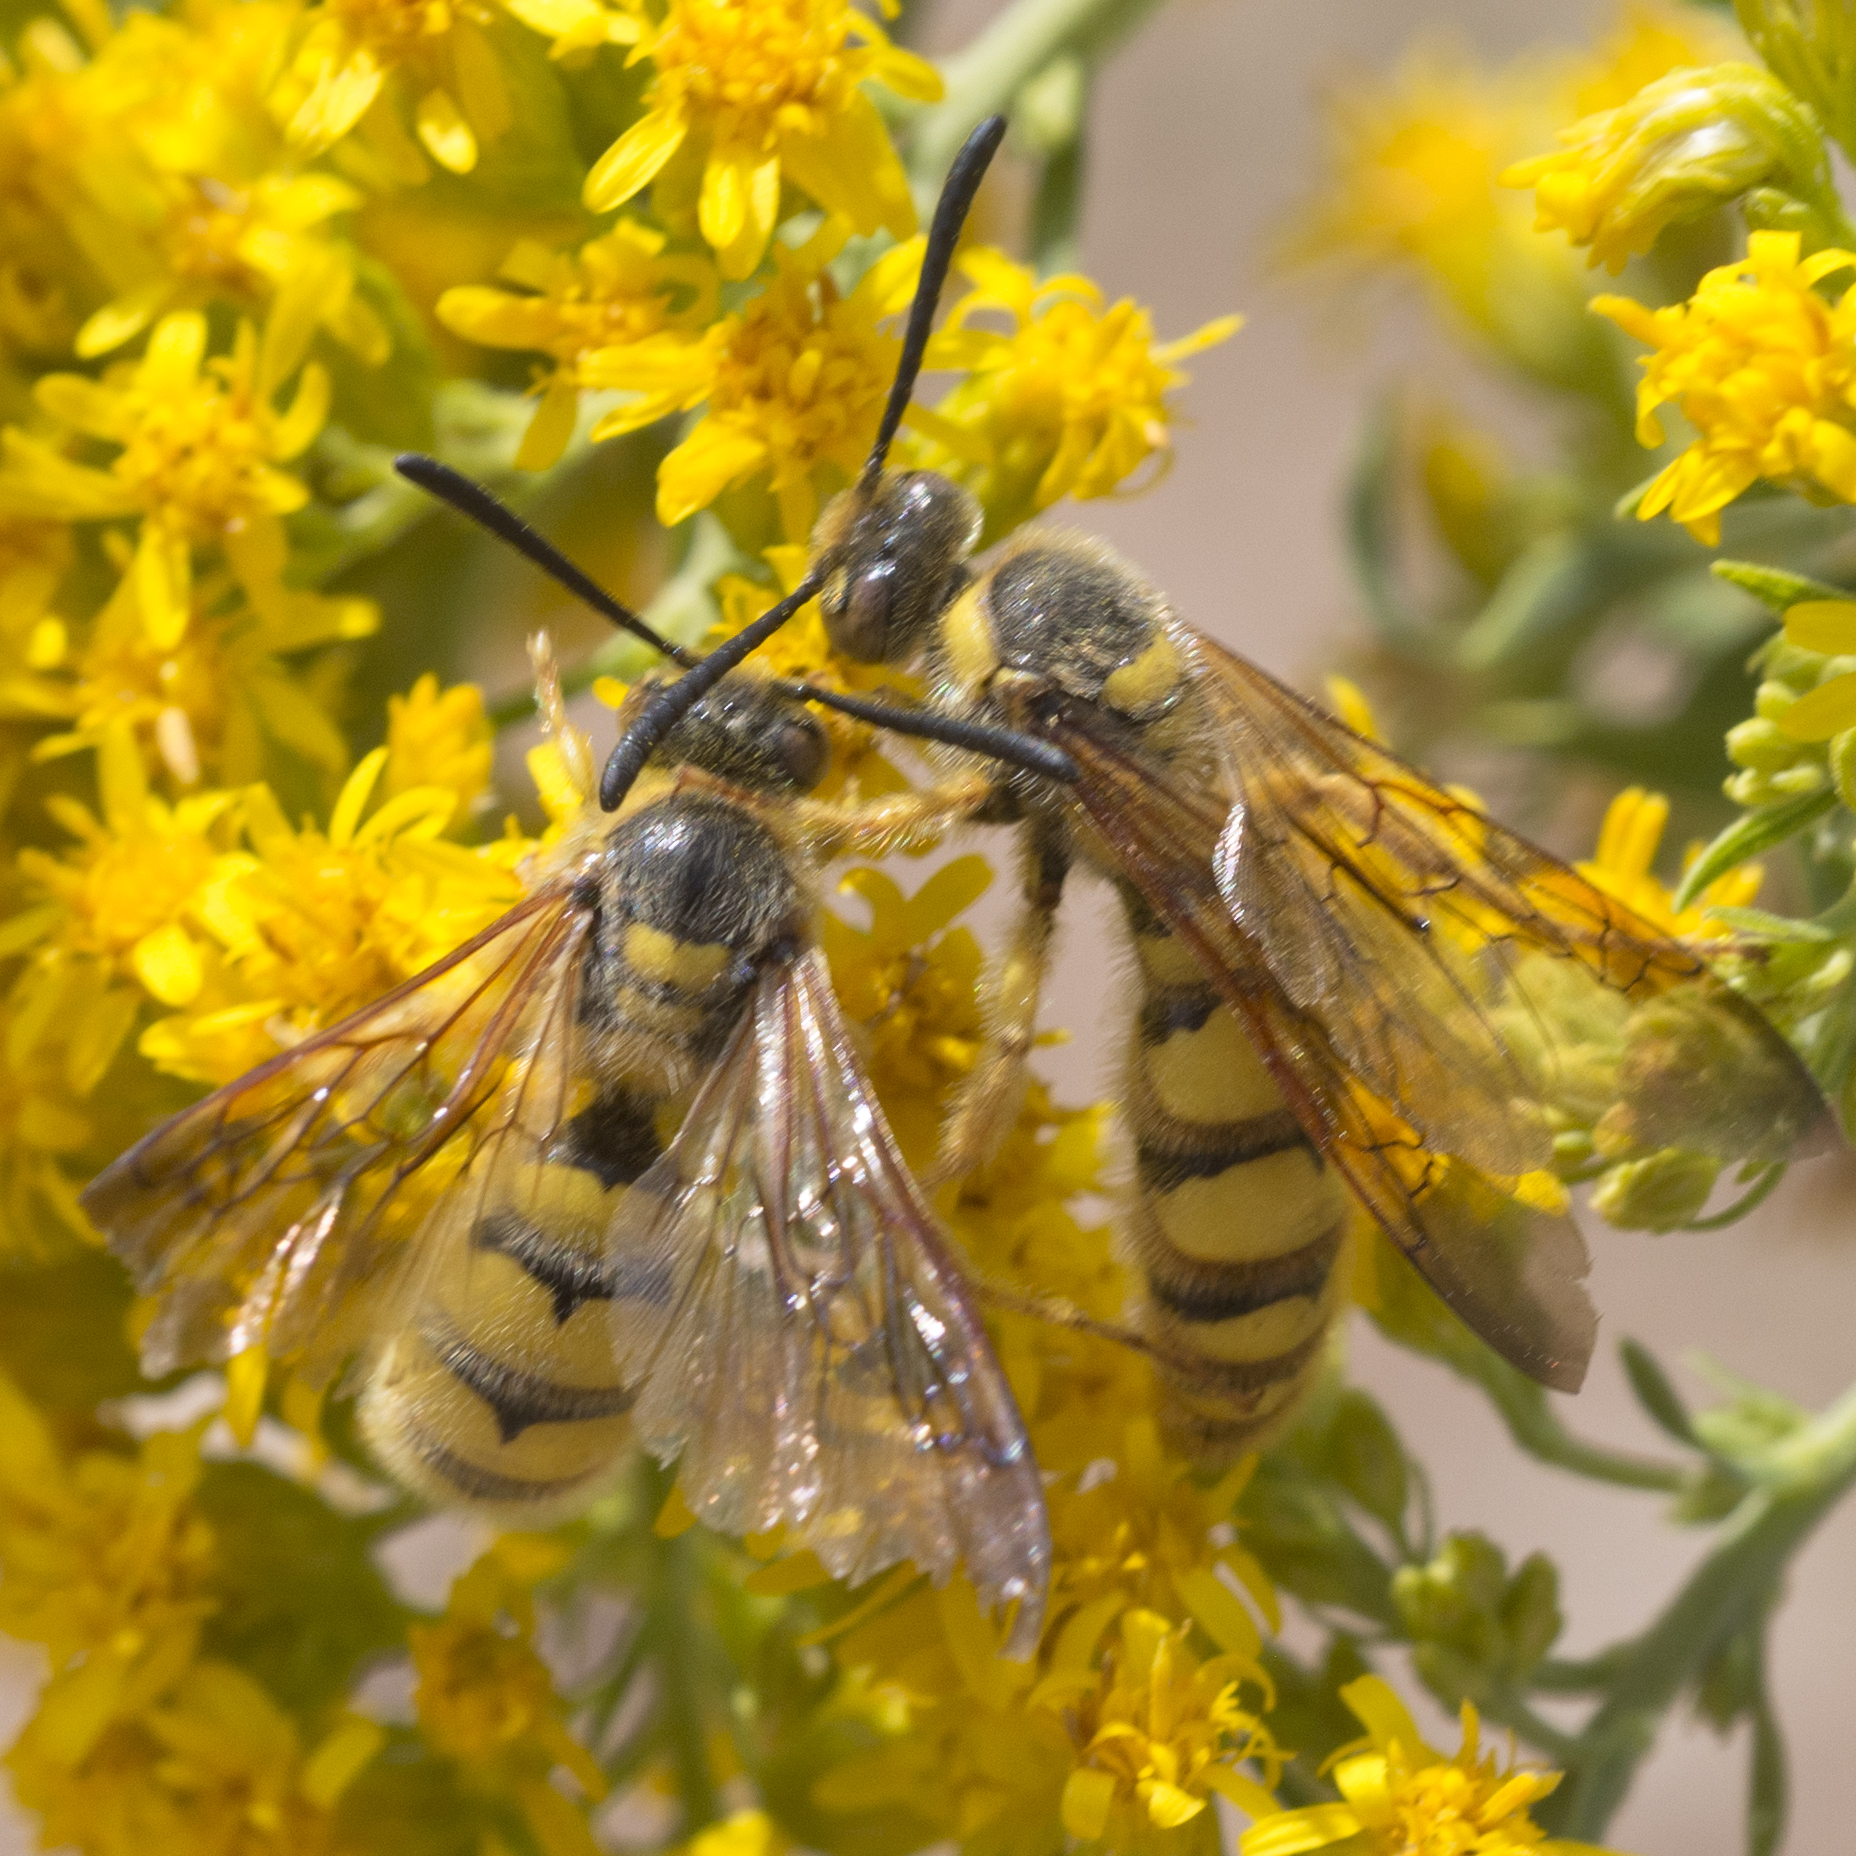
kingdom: Animalia
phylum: Arthropoda
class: Insecta
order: Hymenoptera
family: Sphecidae
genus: Crioscolia
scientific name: Crioscolia
